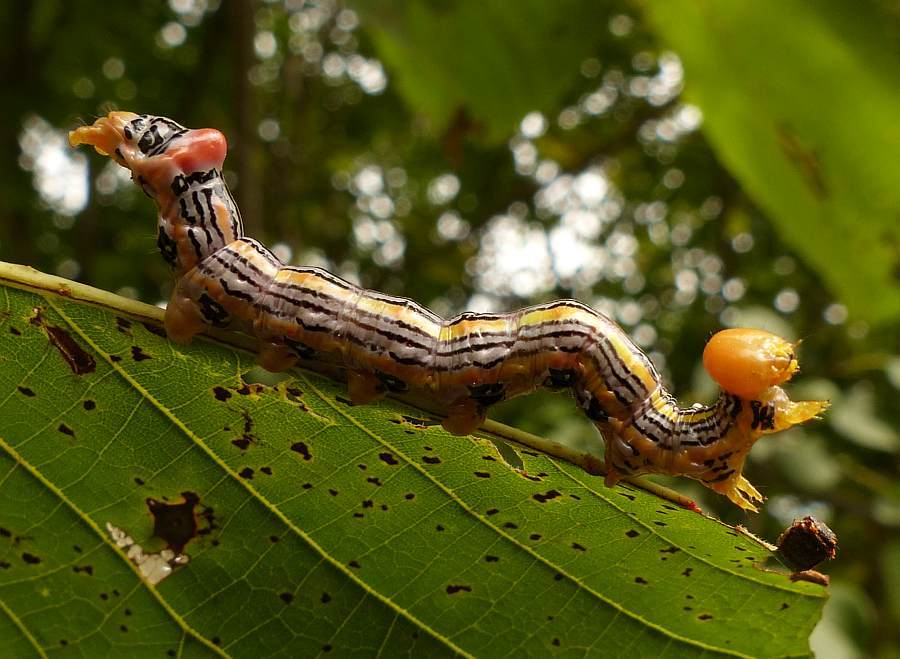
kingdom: Animalia
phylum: Arthropoda
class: Insecta
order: Lepidoptera
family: Notodontidae
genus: Symmerista
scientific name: Symmerista leucitys
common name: Orange-humped mapleworm
